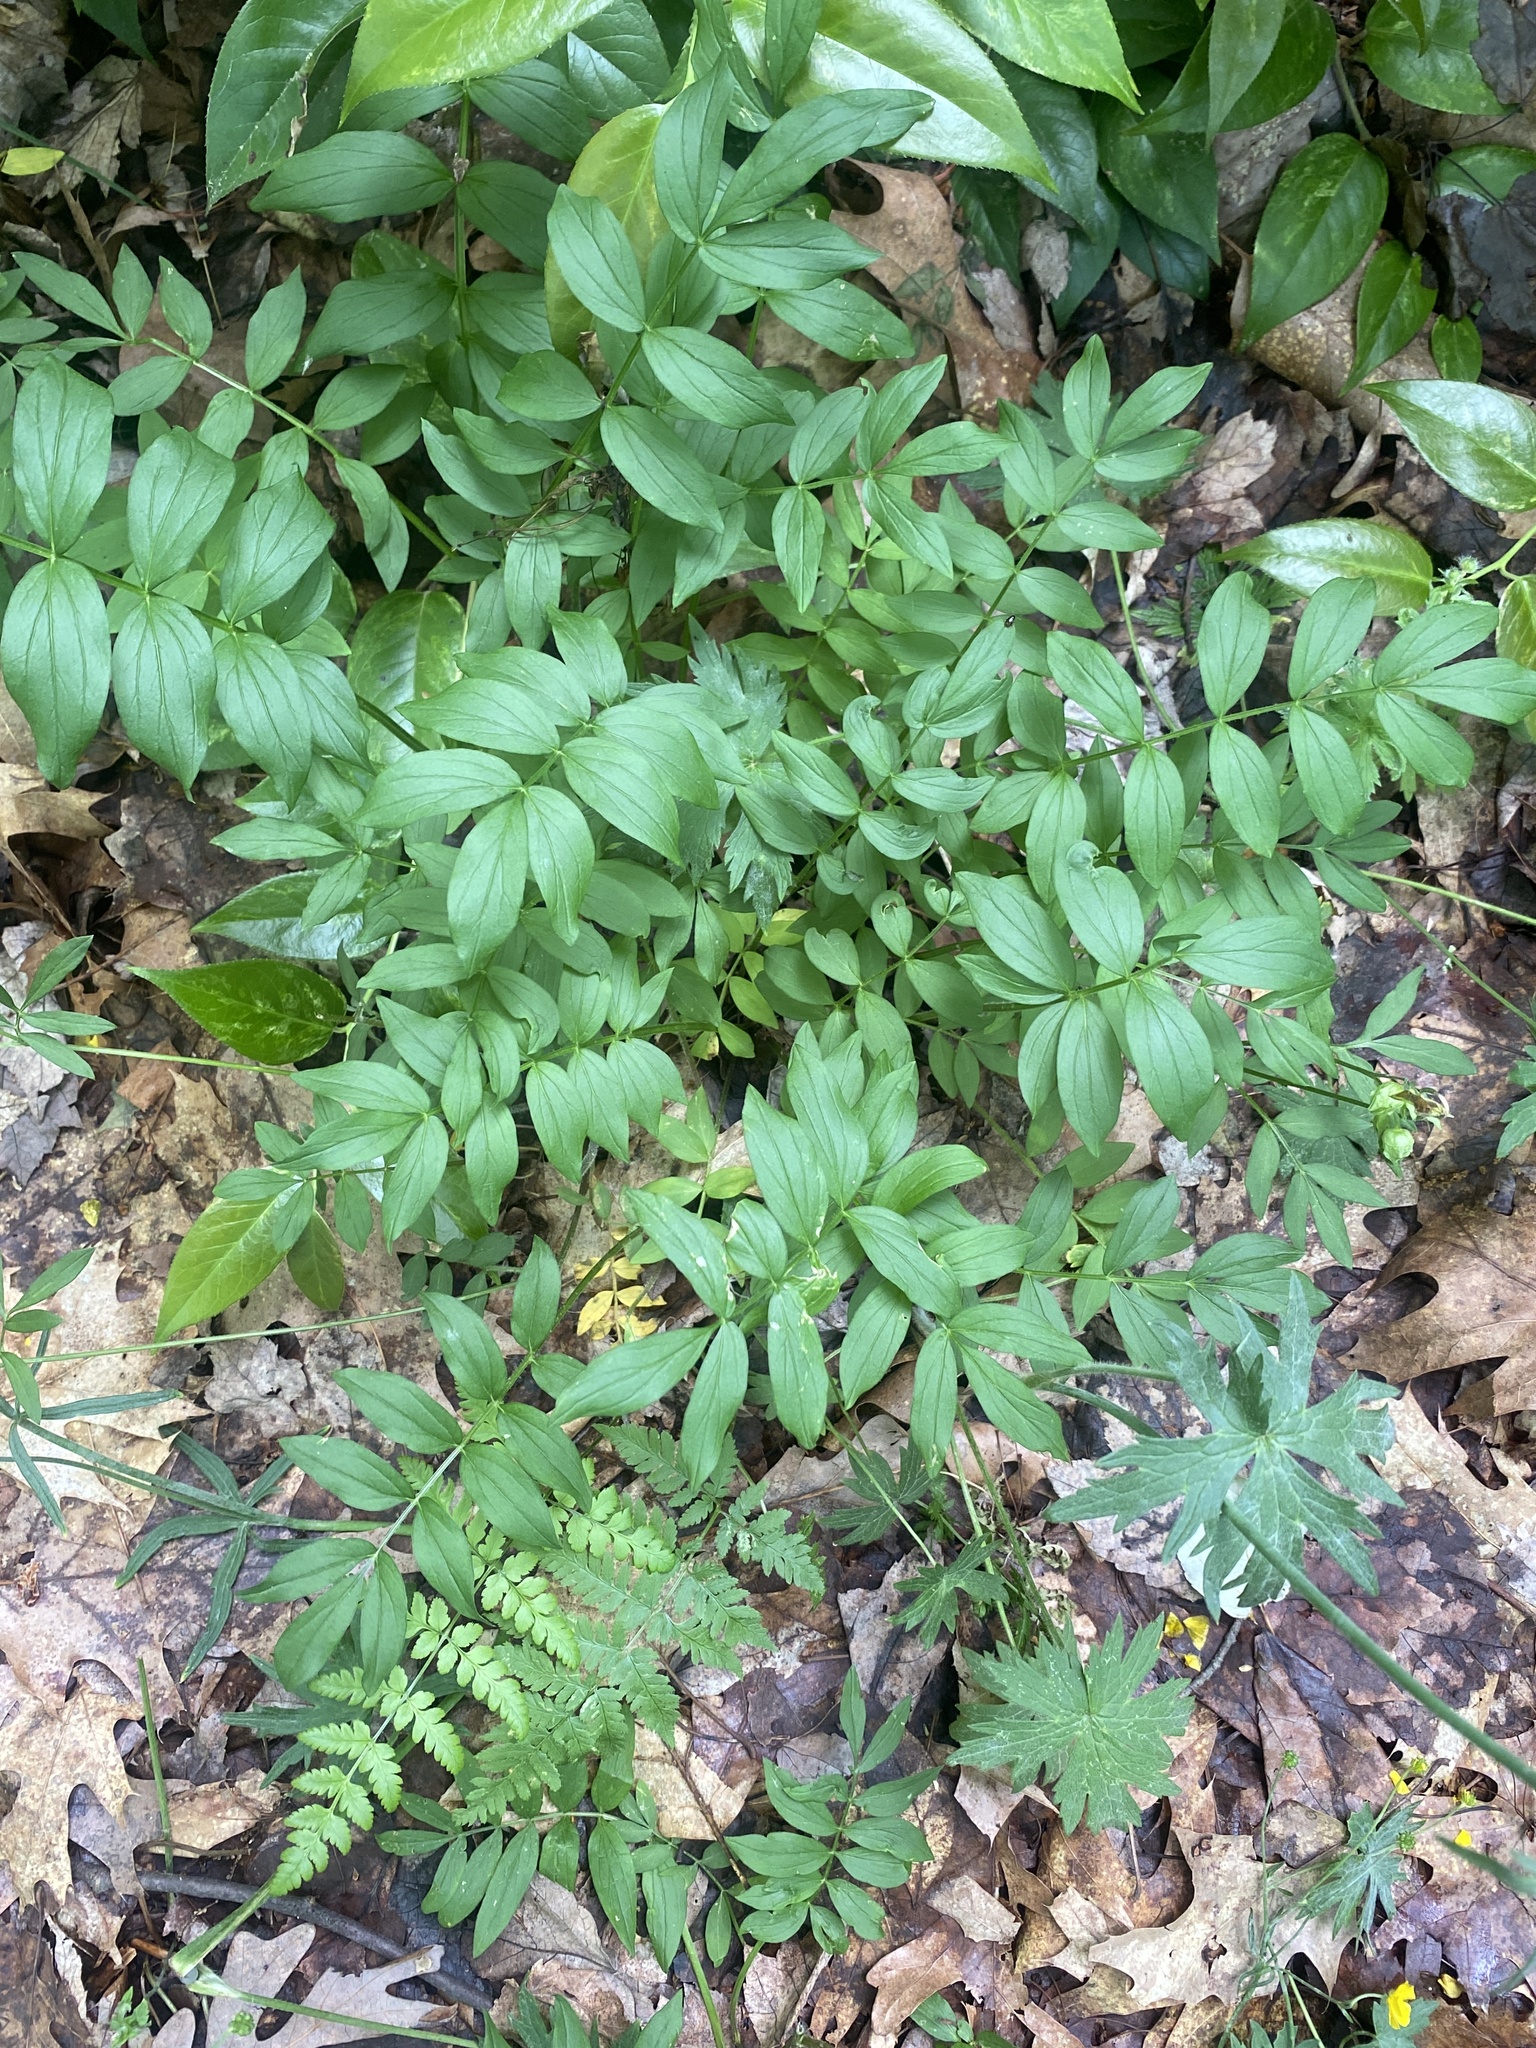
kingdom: Plantae
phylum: Tracheophyta
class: Magnoliopsida
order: Ericales
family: Polemoniaceae
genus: Polemonium
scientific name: Polemonium reptans
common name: Creeping jacob's-ladder
